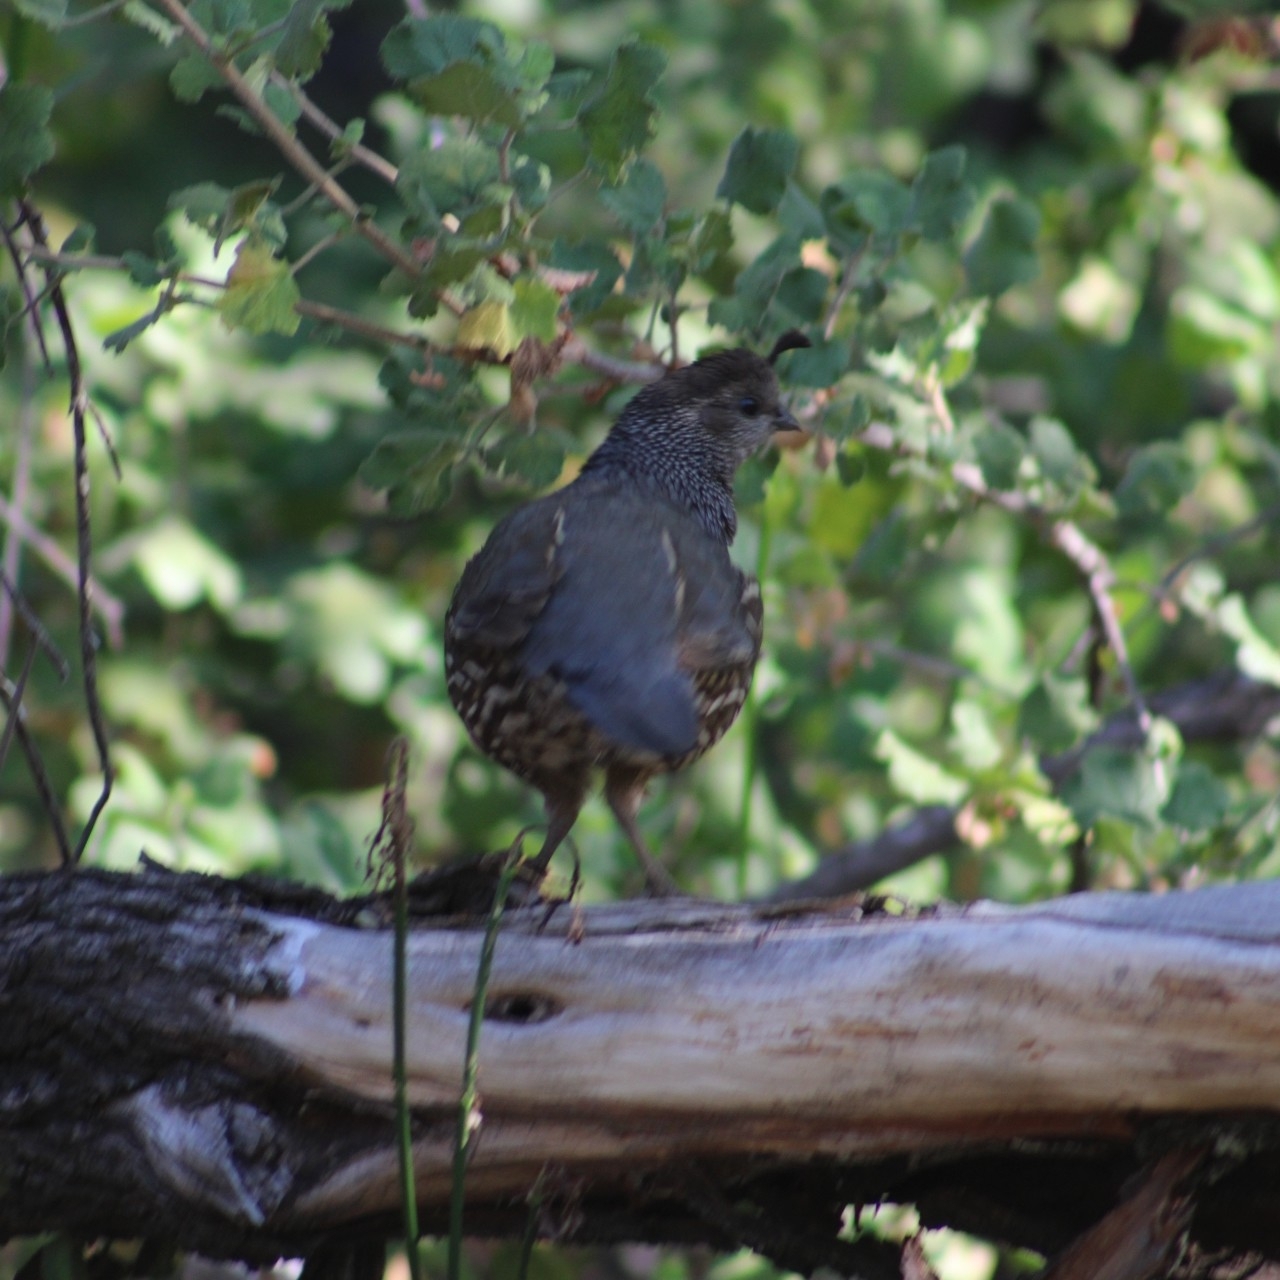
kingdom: Animalia
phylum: Chordata
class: Aves
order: Galliformes
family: Odontophoridae
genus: Callipepla
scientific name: Callipepla californica
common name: California quail
